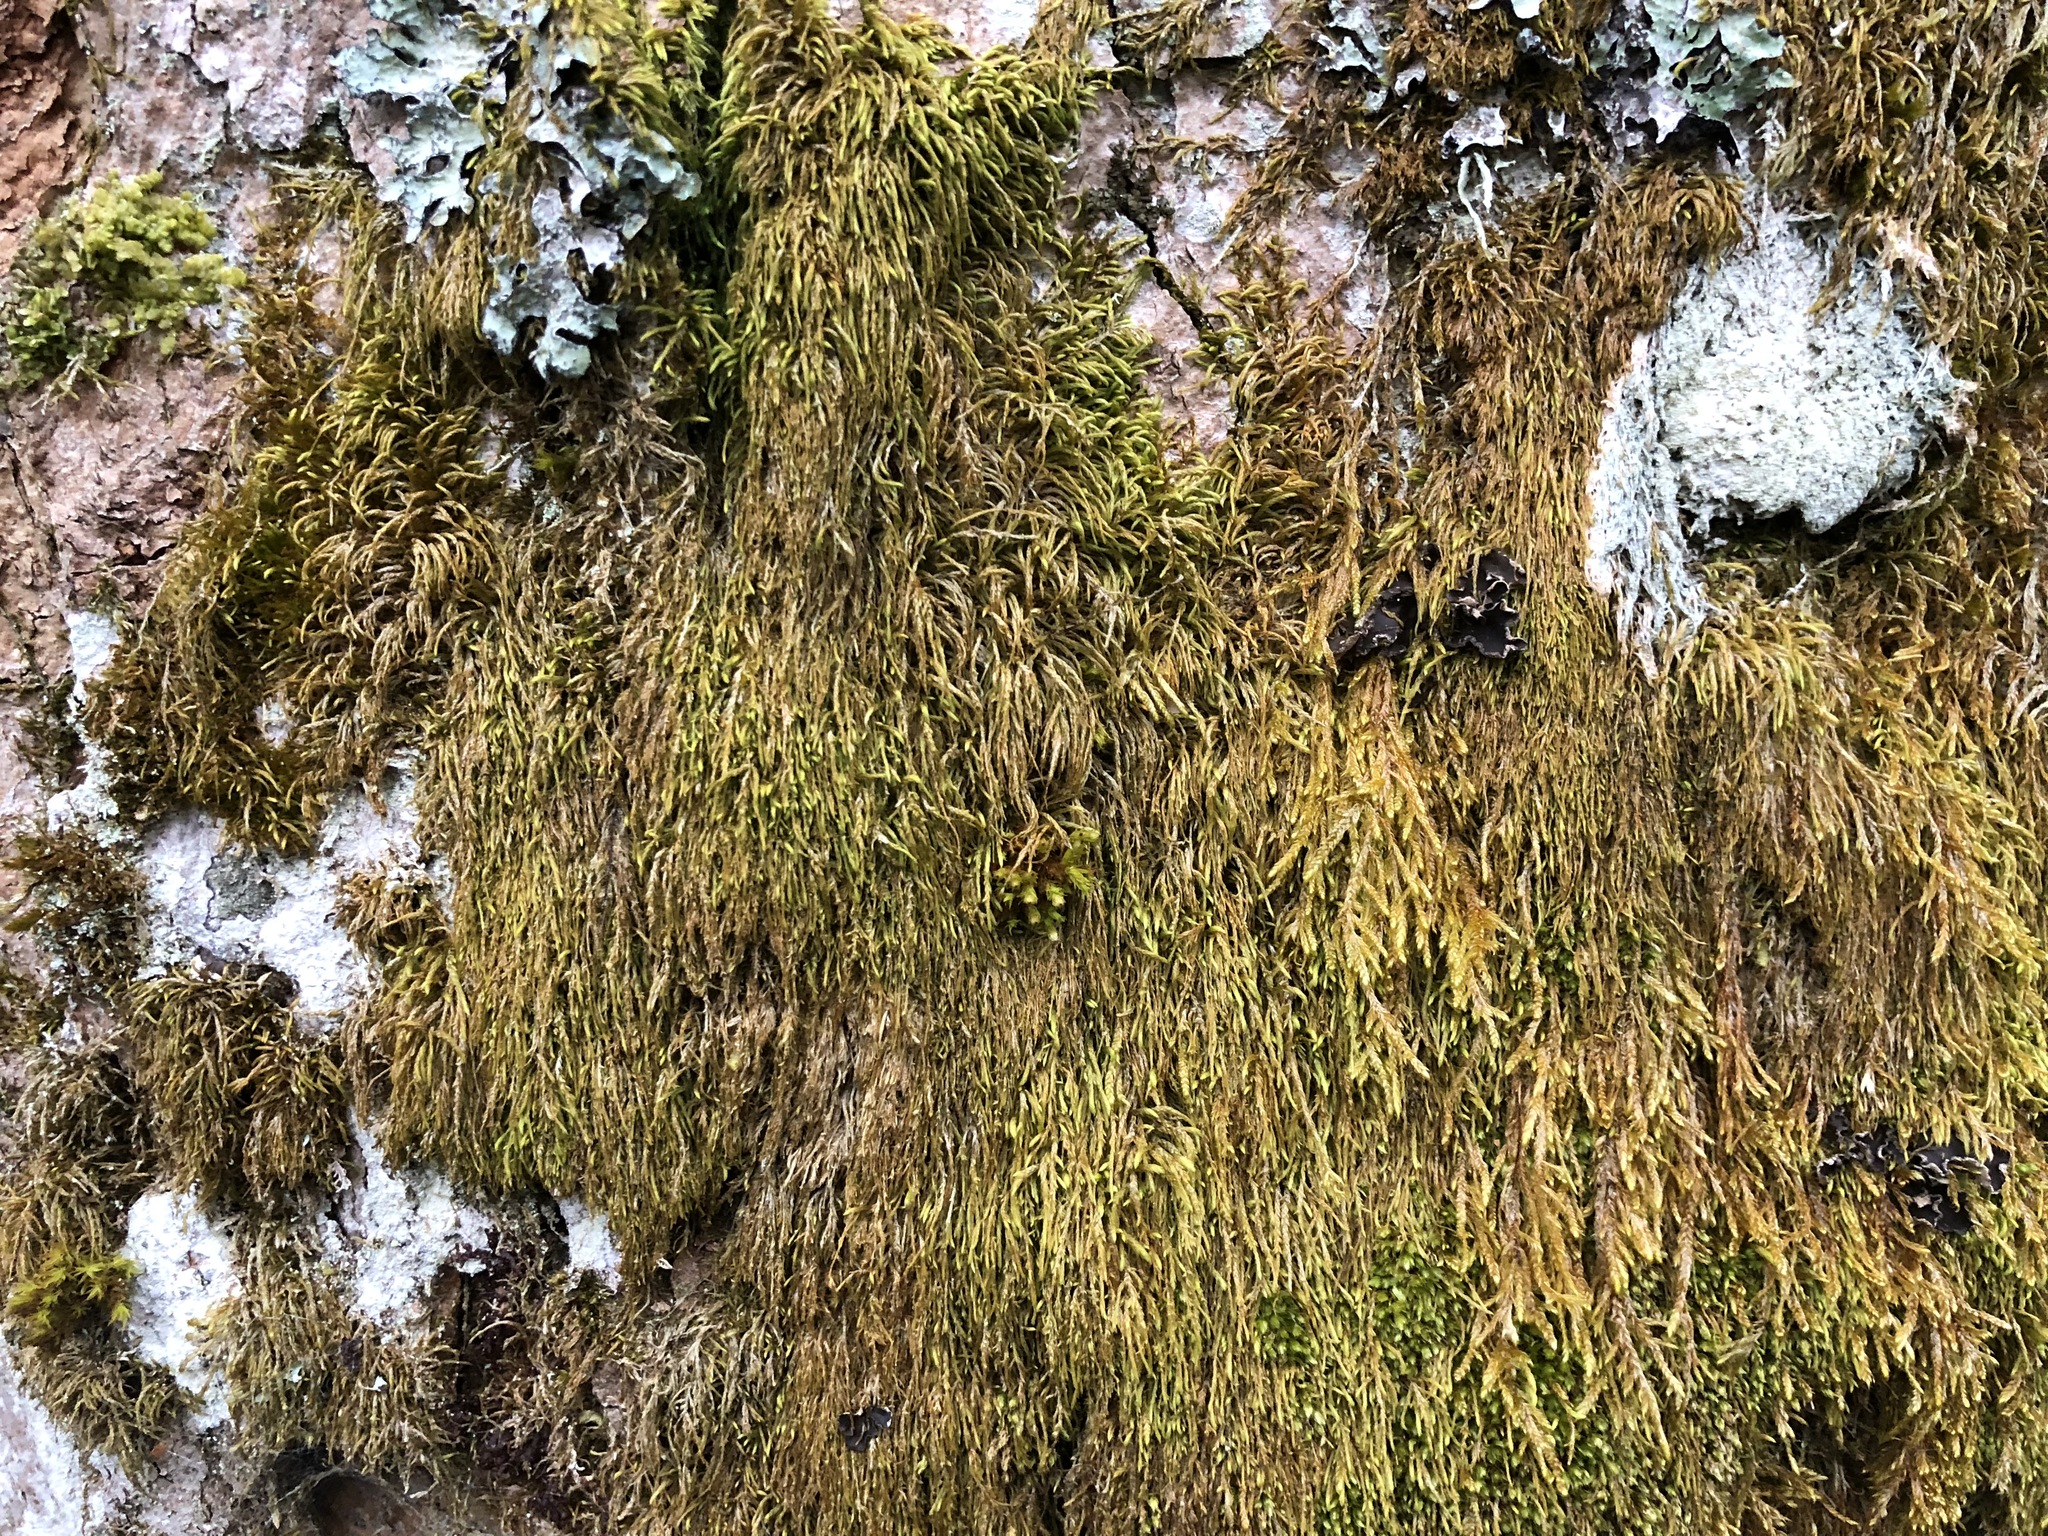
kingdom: Plantae
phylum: Bryophyta
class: Bryopsida
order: Hypnales
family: Pterigynandraceae
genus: Pterigynandrum
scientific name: Pterigynandrum filiforme
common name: Capillary wing moss
